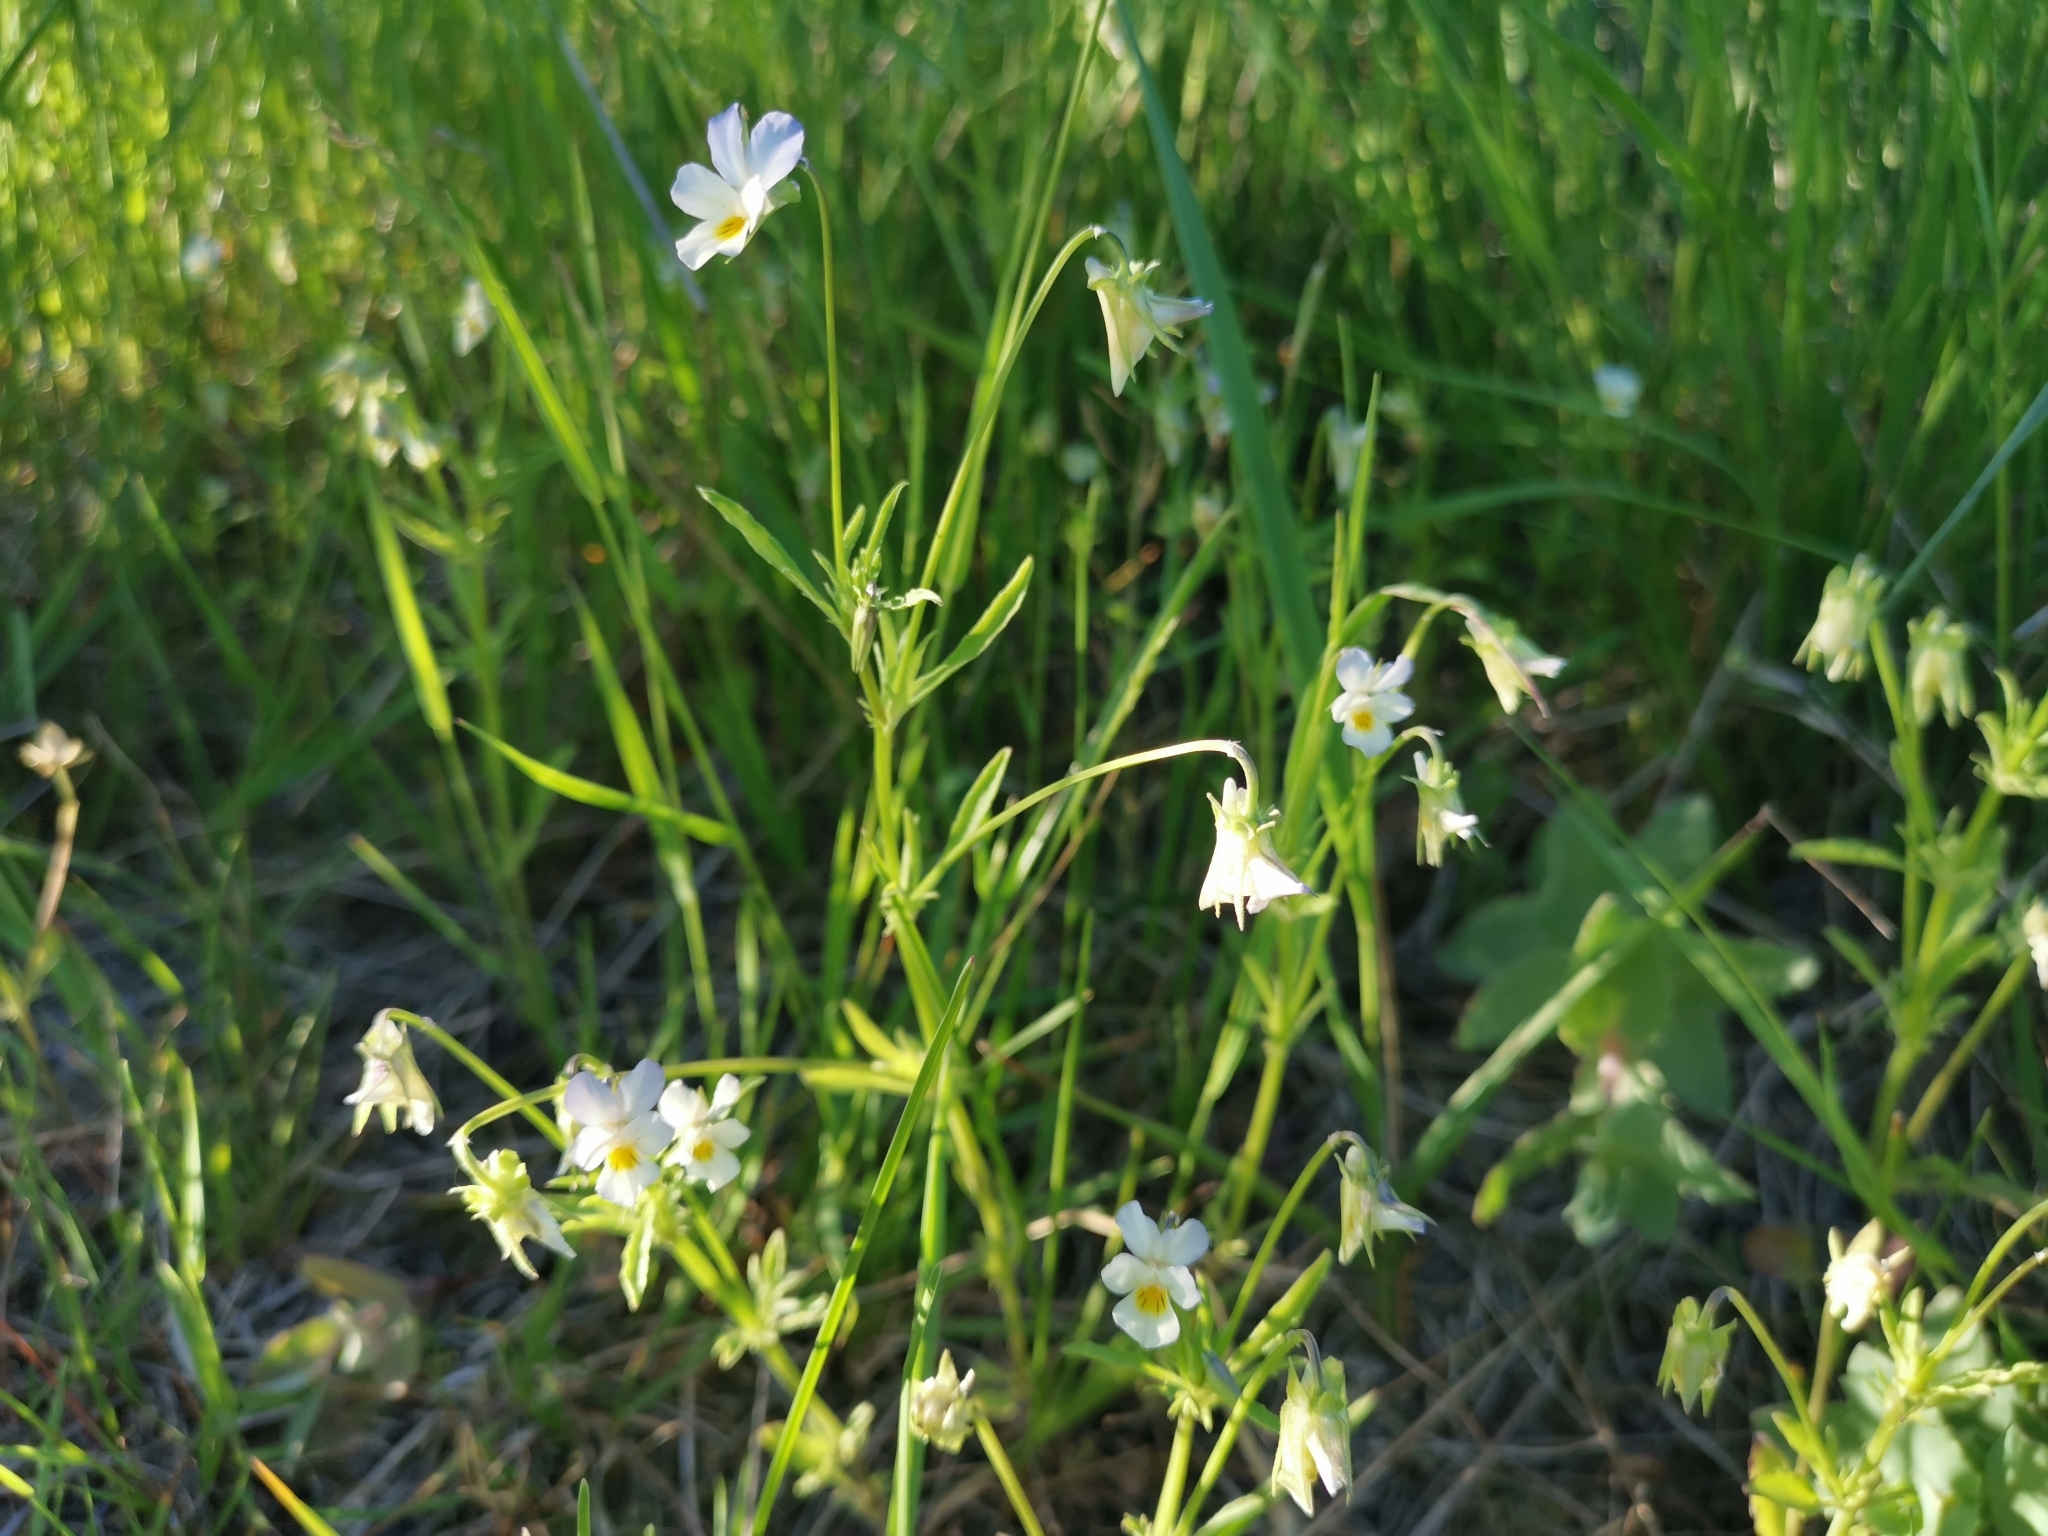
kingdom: Plantae
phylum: Tracheophyta
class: Magnoliopsida
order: Malpighiales
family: Violaceae
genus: Viola
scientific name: Viola tricolor
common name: Pansy
